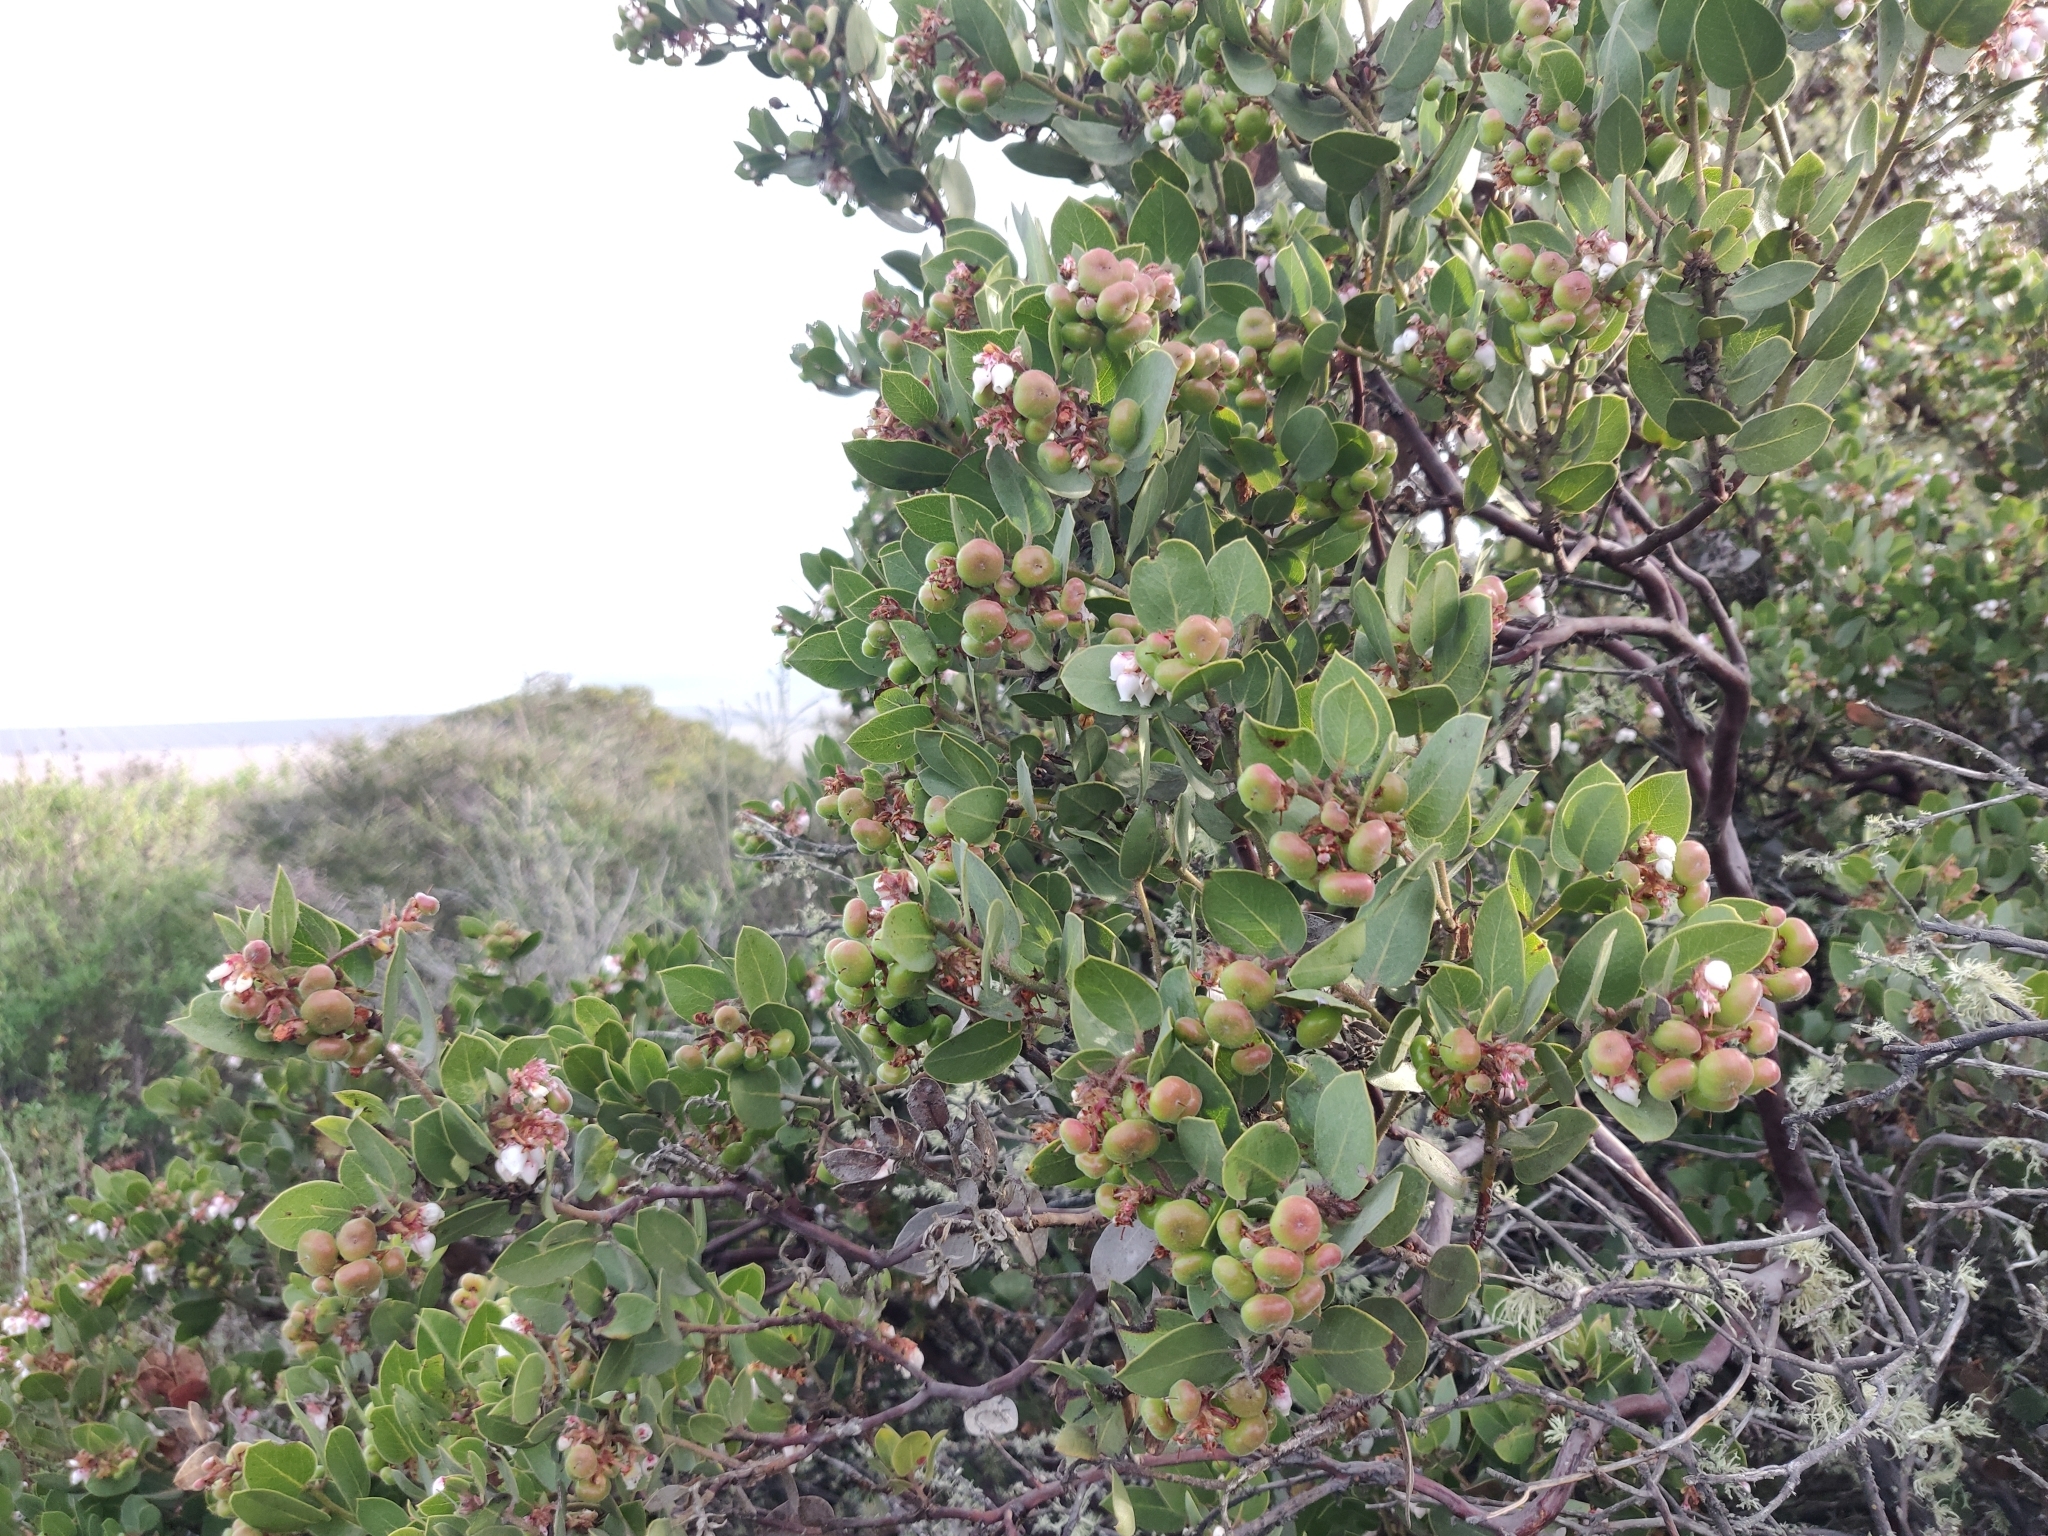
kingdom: Plantae
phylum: Tracheophyta
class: Magnoliopsida
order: Ericales
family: Ericaceae
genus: Arctostaphylos
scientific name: Arctostaphylos montereyensis
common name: Monterey manzanita
